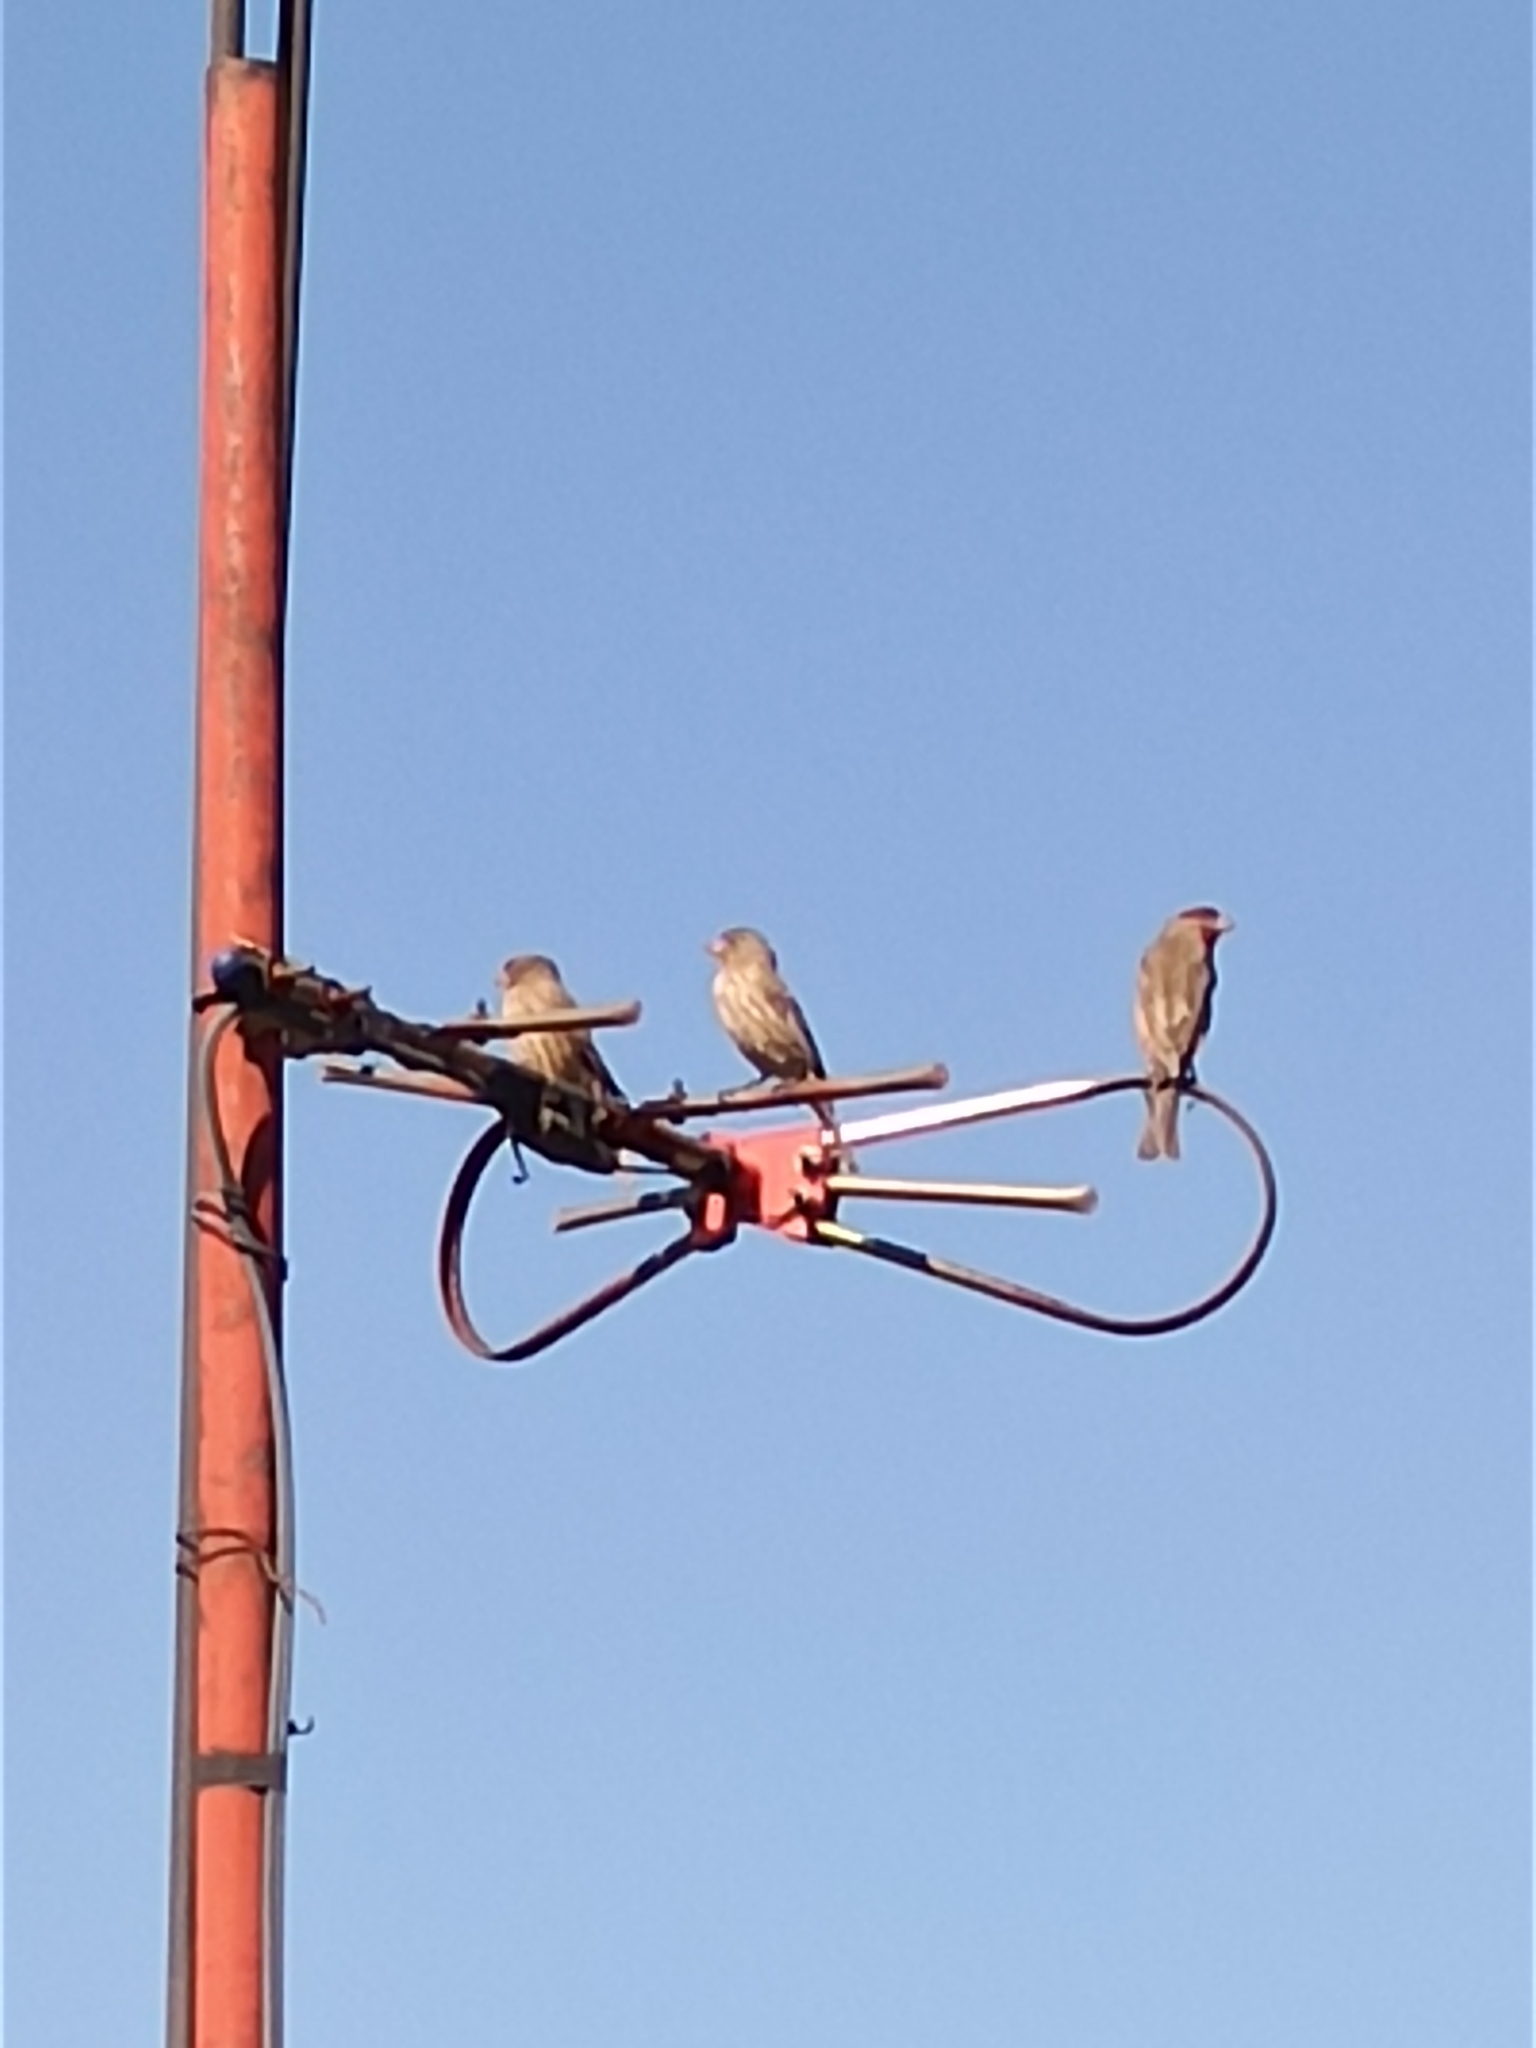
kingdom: Animalia
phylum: Chordata
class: Aves
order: Passeriformes
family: Fringillidae
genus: Haemorhous
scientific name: Haemorhous mexicanus
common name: House finch
